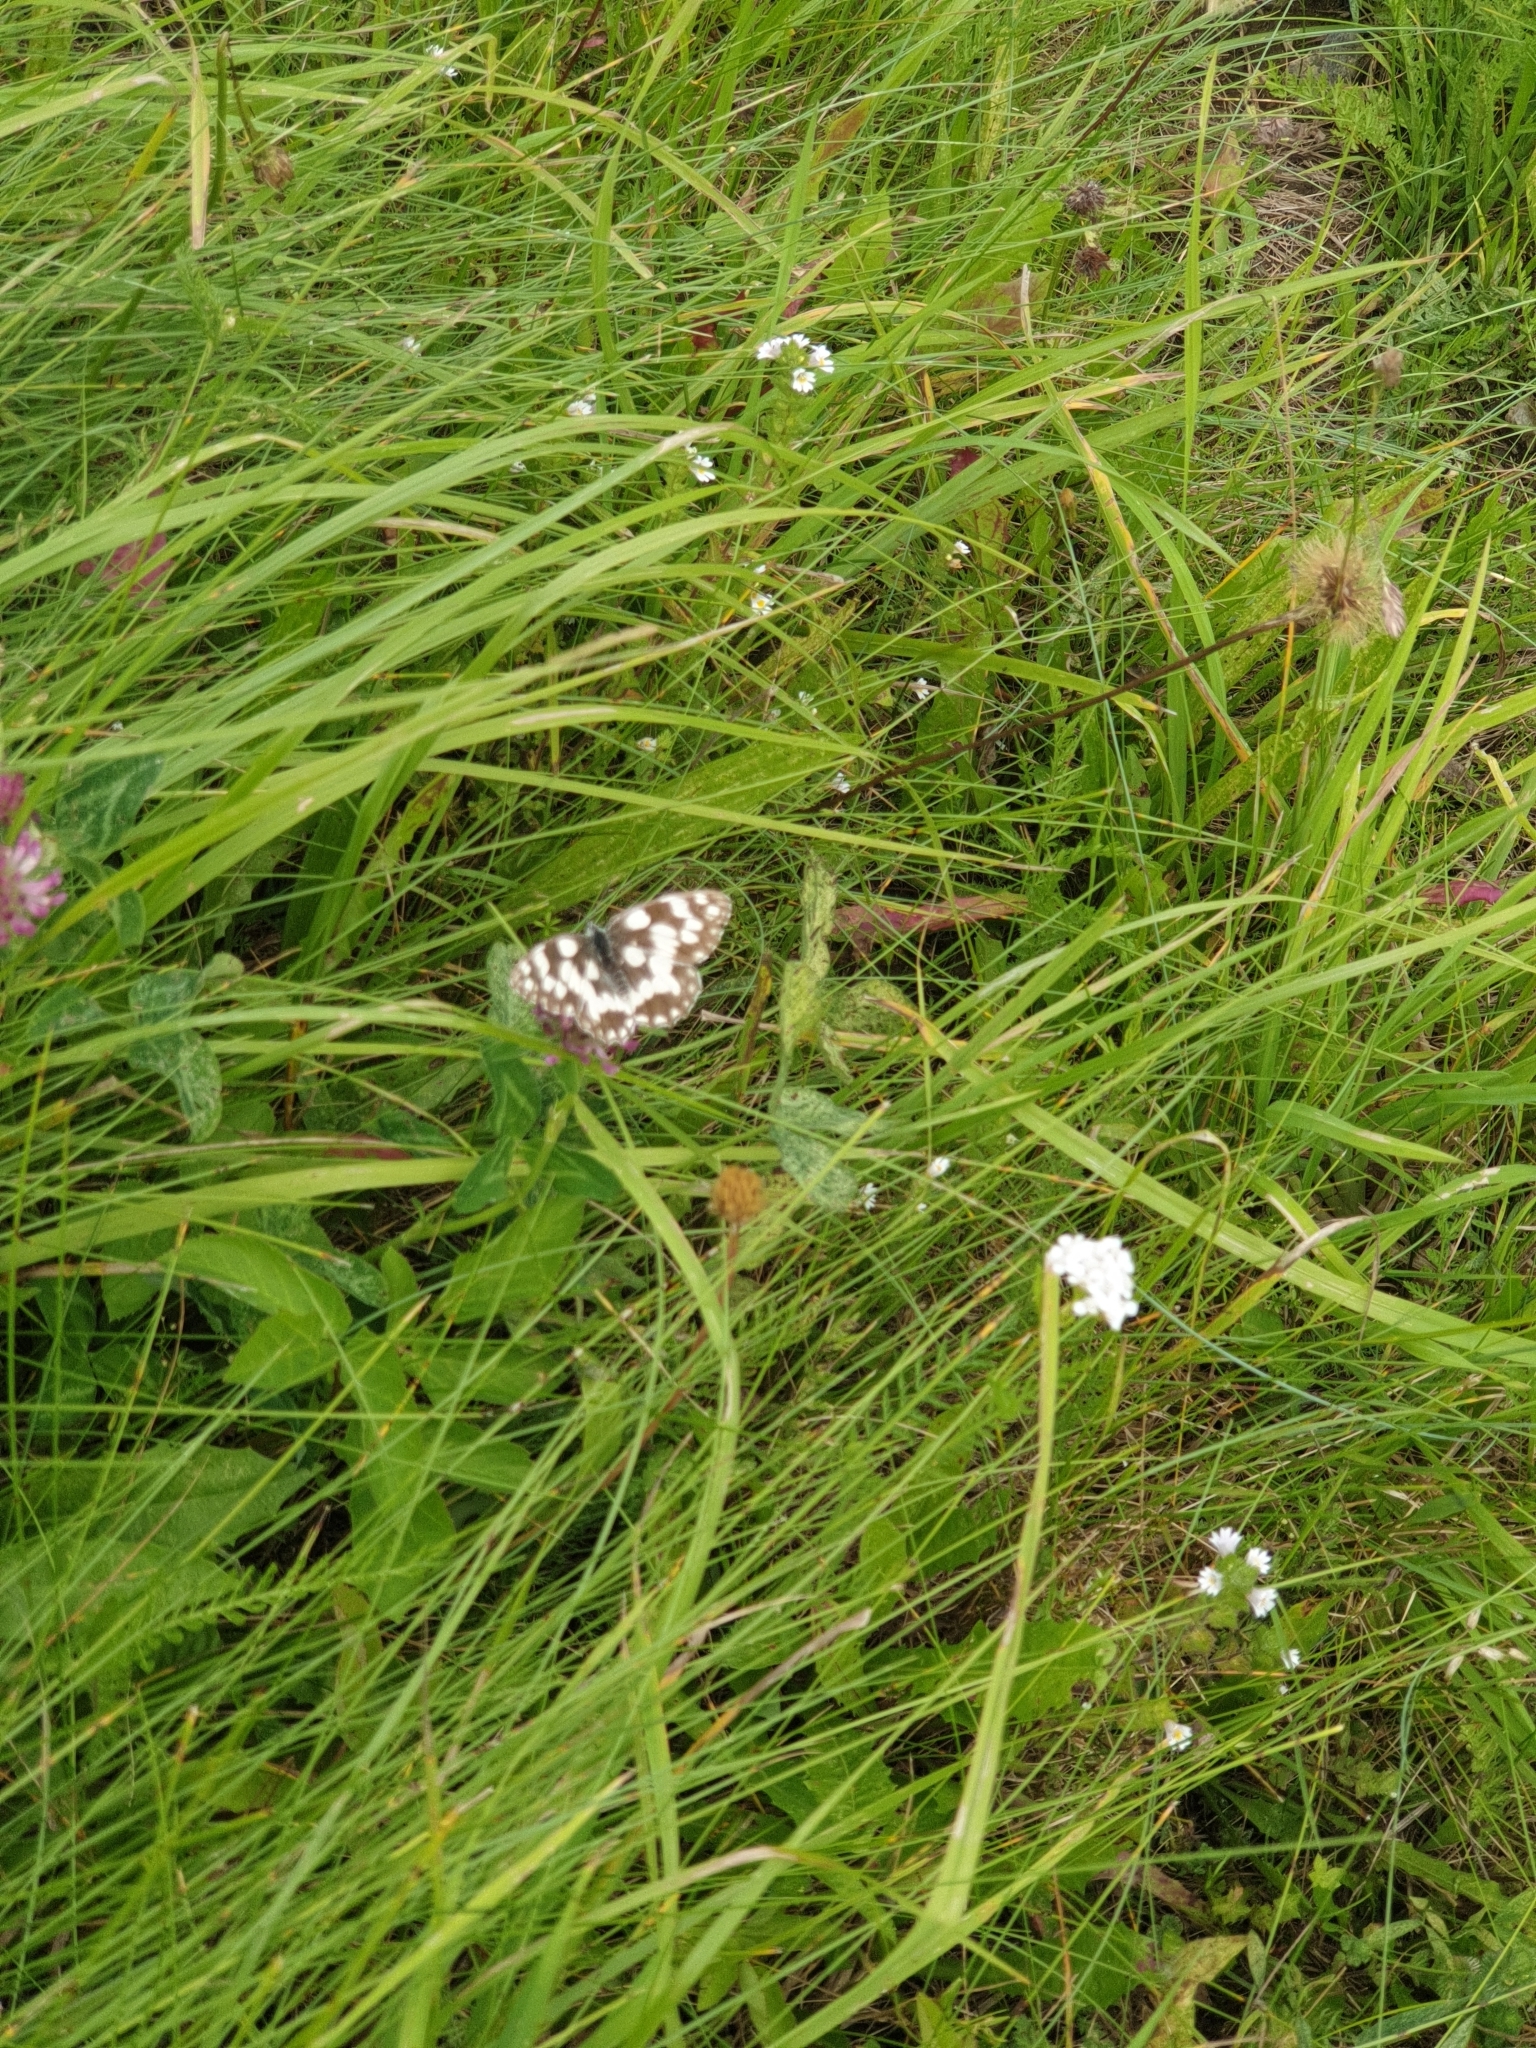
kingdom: Animalia
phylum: Arthropoda
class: Insecta
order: Lepidoptera
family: Nymphalidae
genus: Melanargia
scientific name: Melanargia galathea
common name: Marbled white
